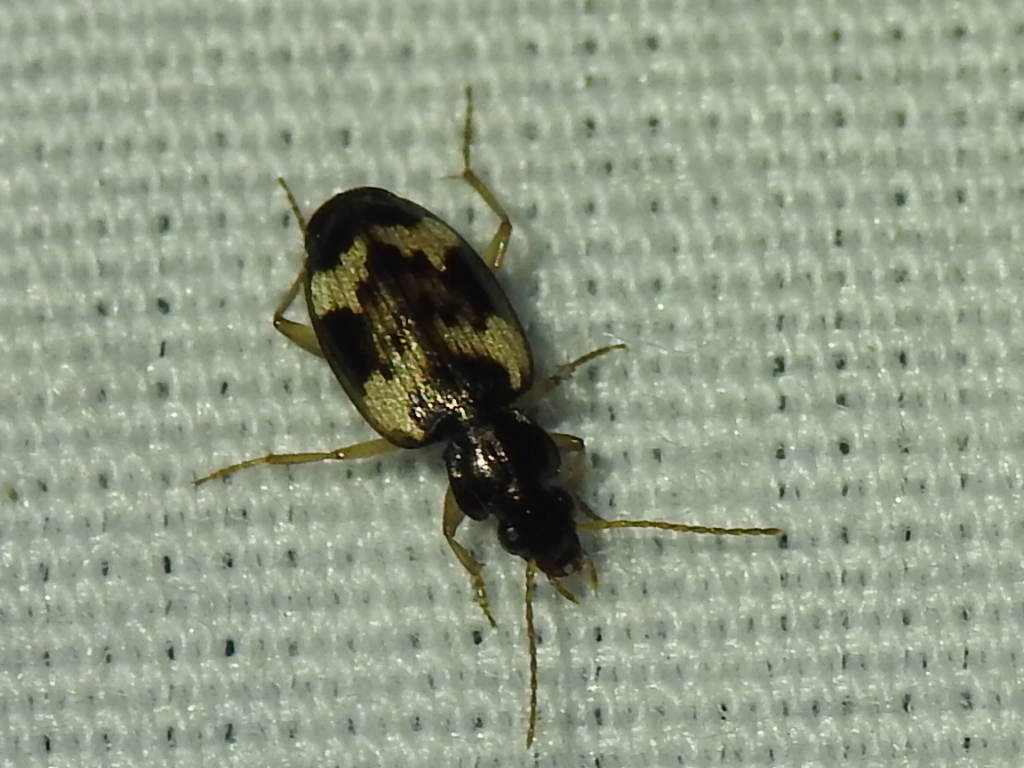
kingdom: Animalia
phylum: Arthropoda
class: Insecta
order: Coleoptera
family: Carabidae
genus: Tetragonoderus
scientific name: Tetragonoderus fasciatus
